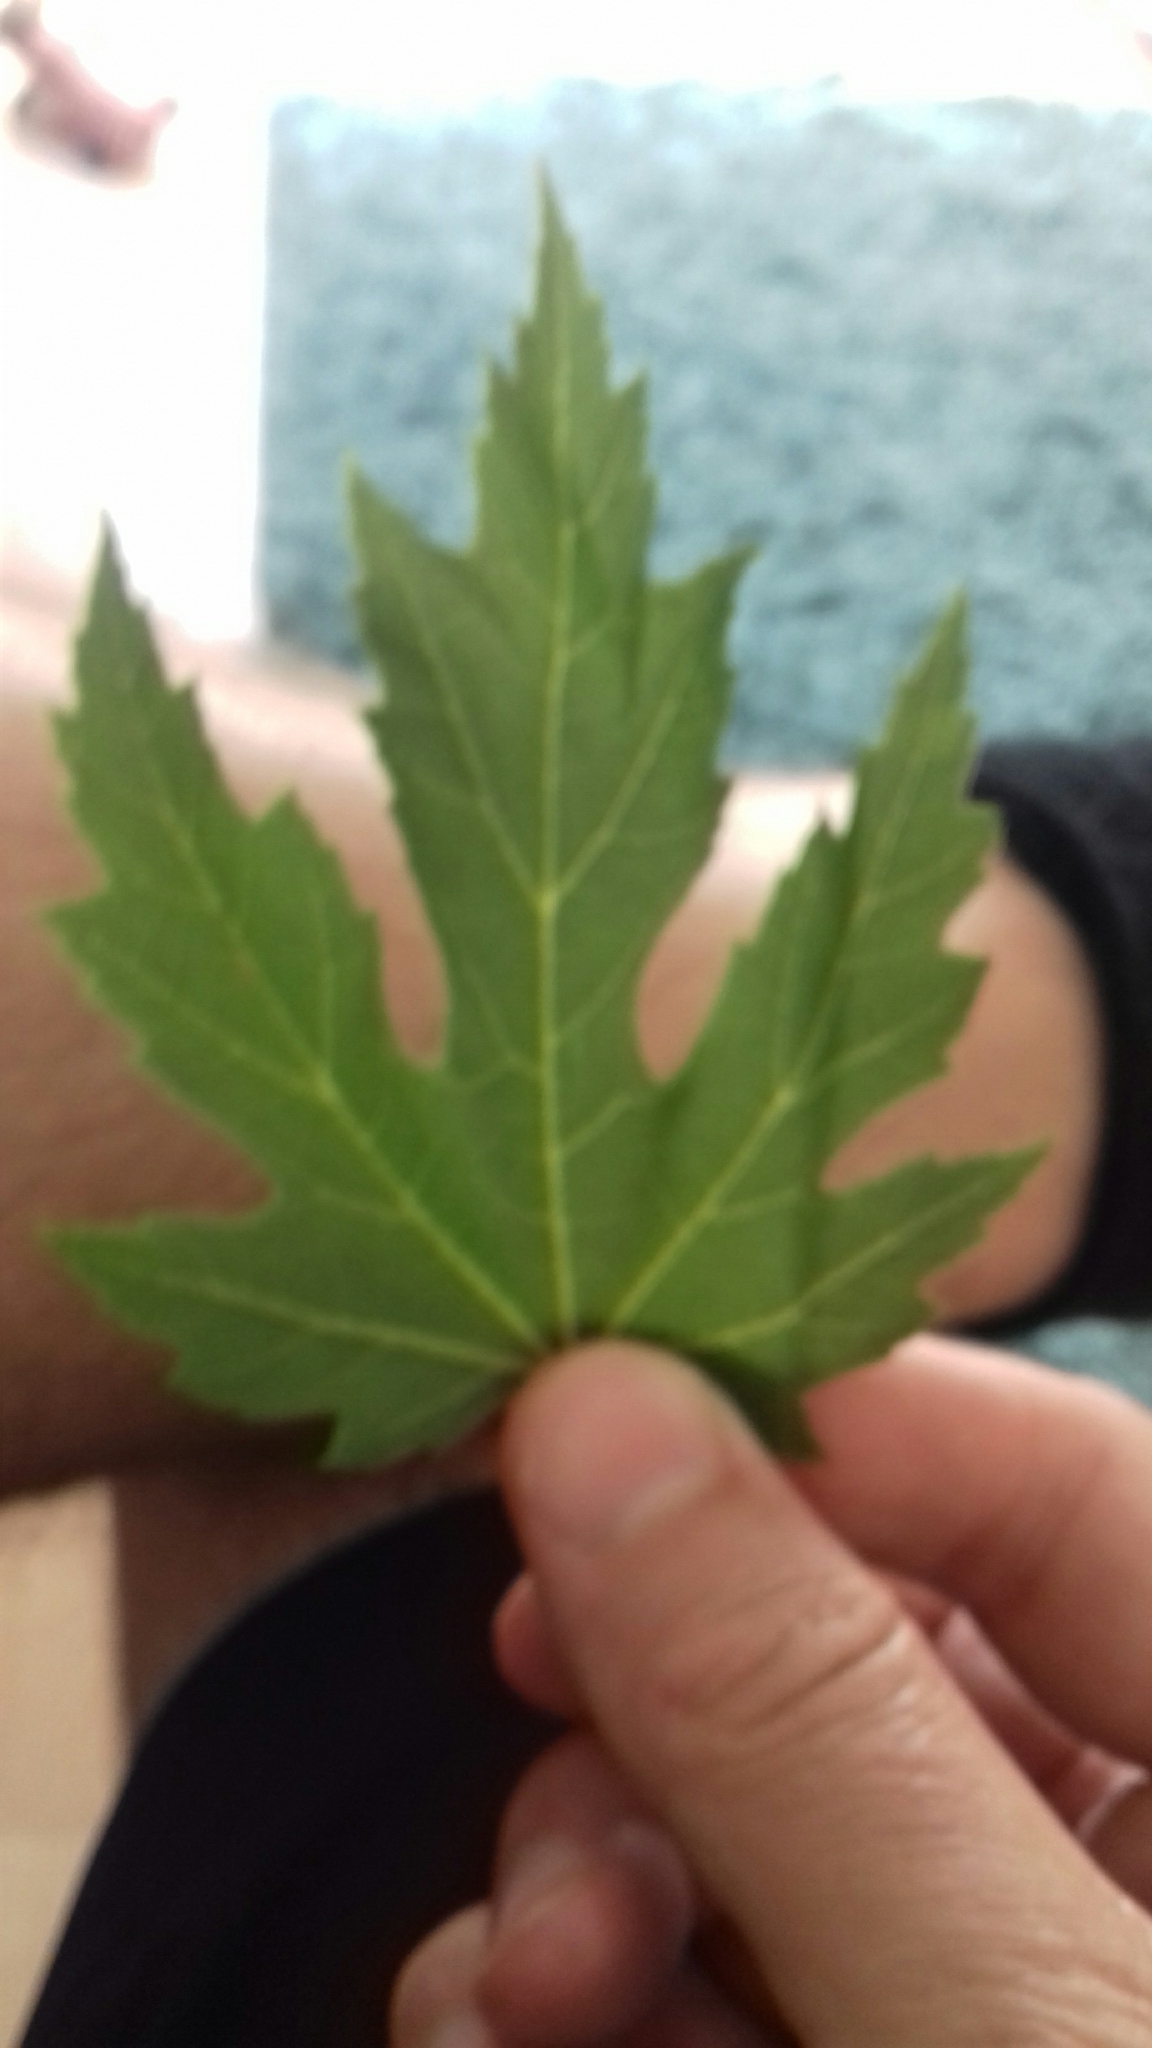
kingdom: Animalia
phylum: Arthropoda
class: Arachnida
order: Trombidiformes
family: Eriophyidae
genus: Vasates
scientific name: Vasates quadripedes
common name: Maple bladder gall mite
